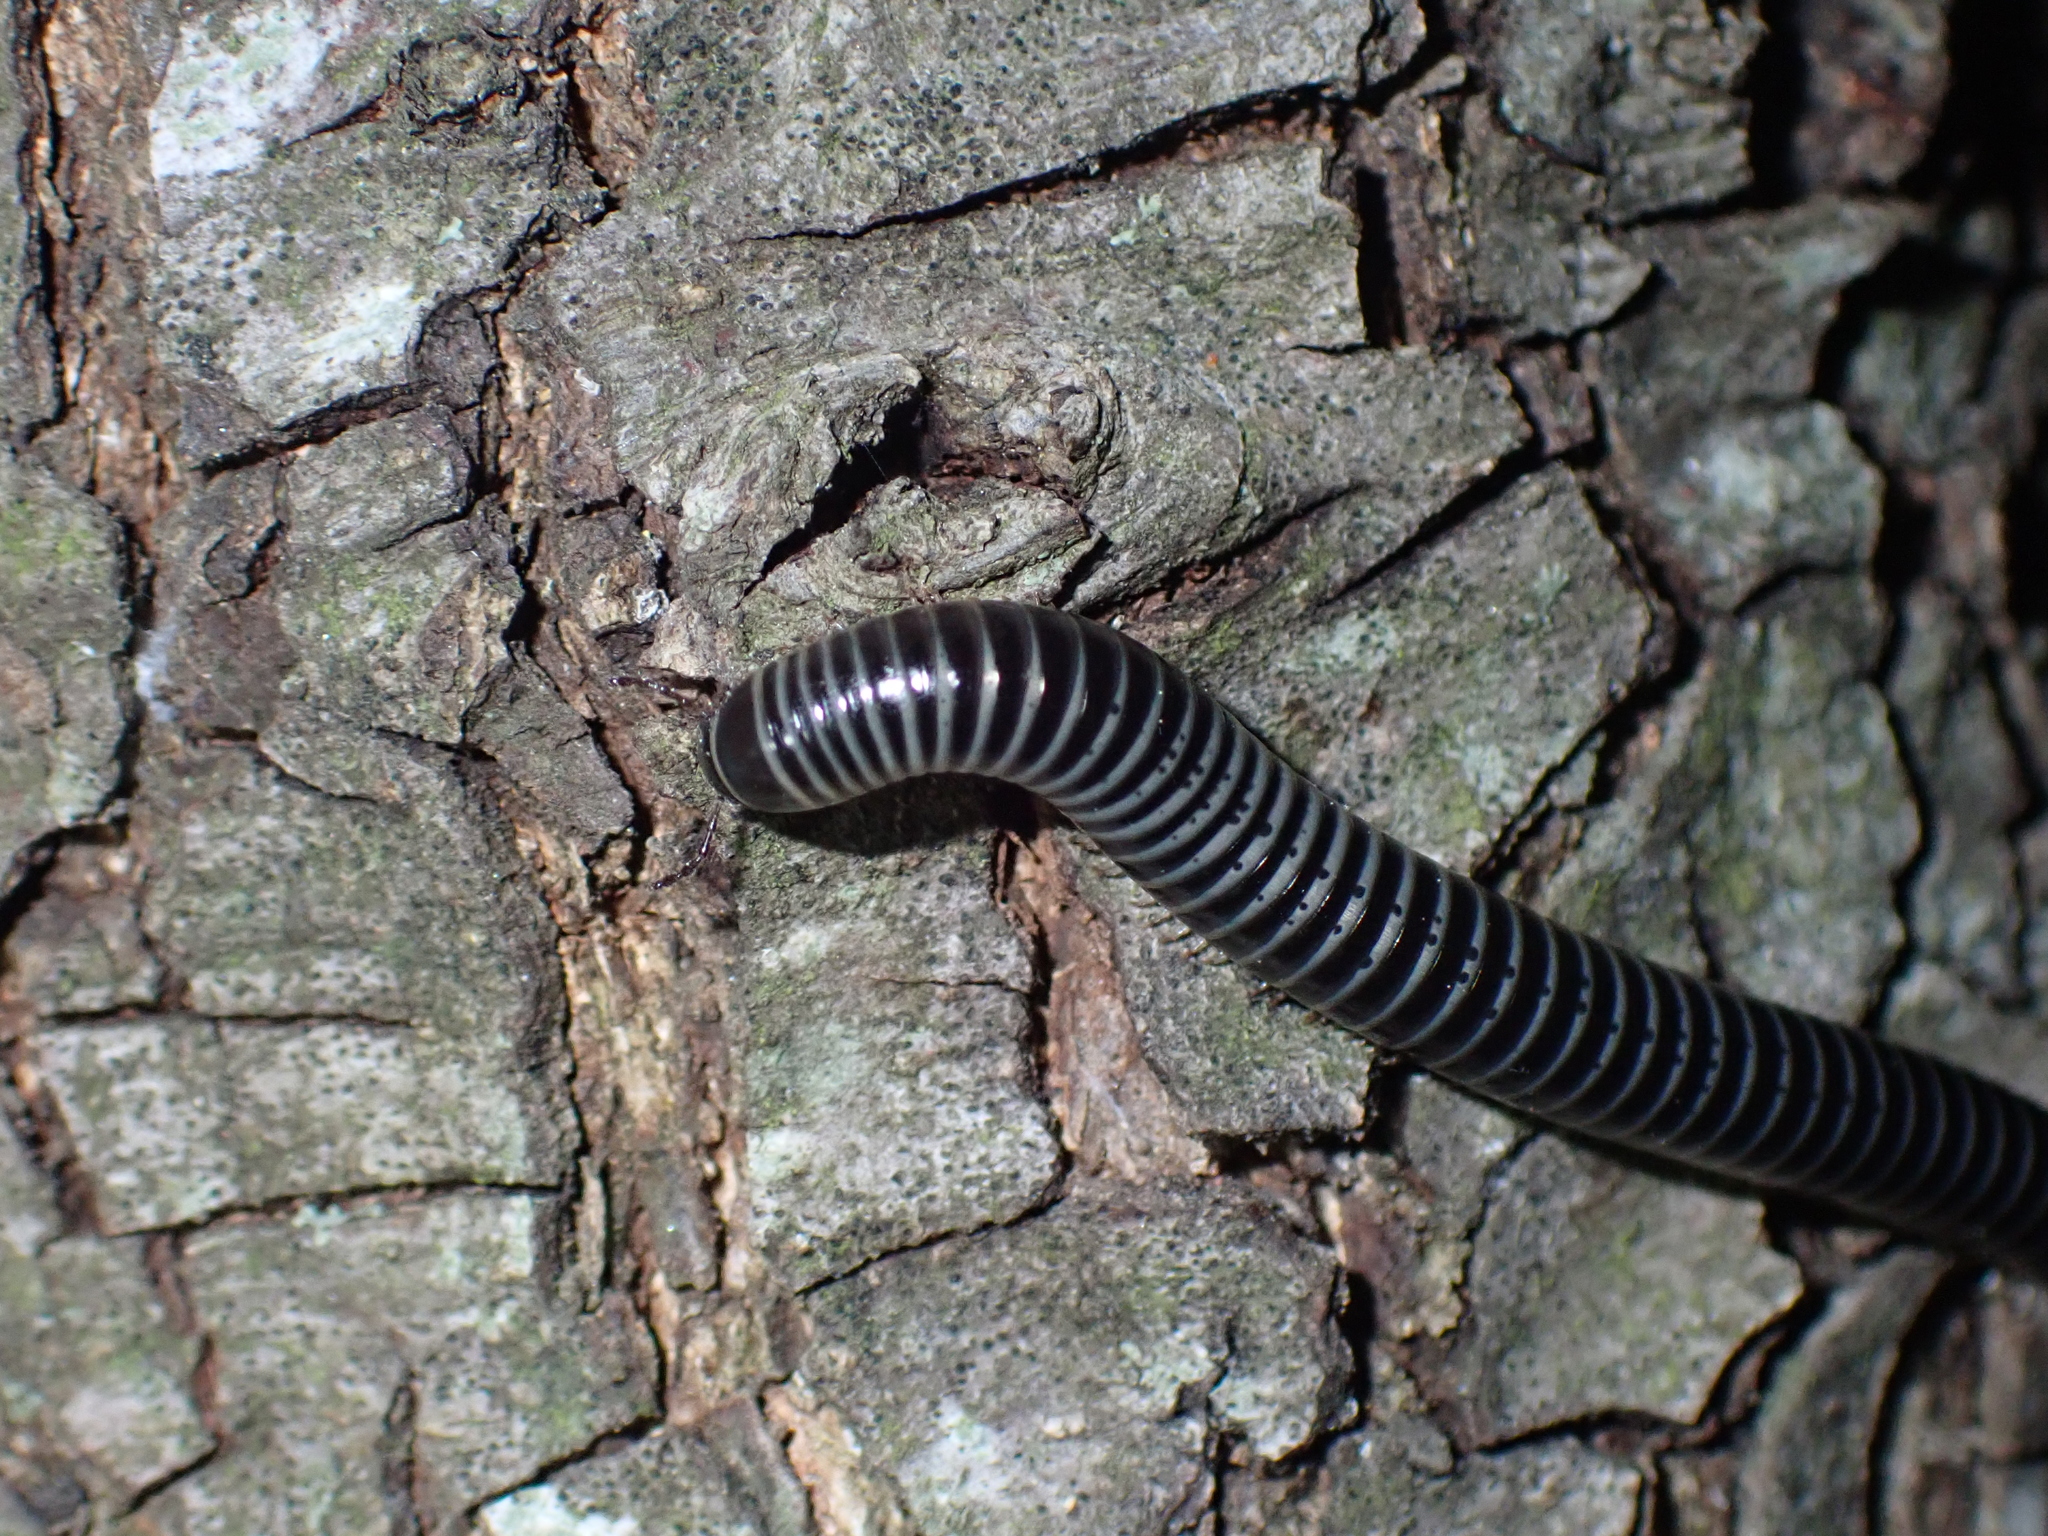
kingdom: Animalia
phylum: Arthropoda
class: Diplopoda
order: Julida
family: Julidae
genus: Ommatoiulus
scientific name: Ommatoiulus sabulosus
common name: Striped millipede
